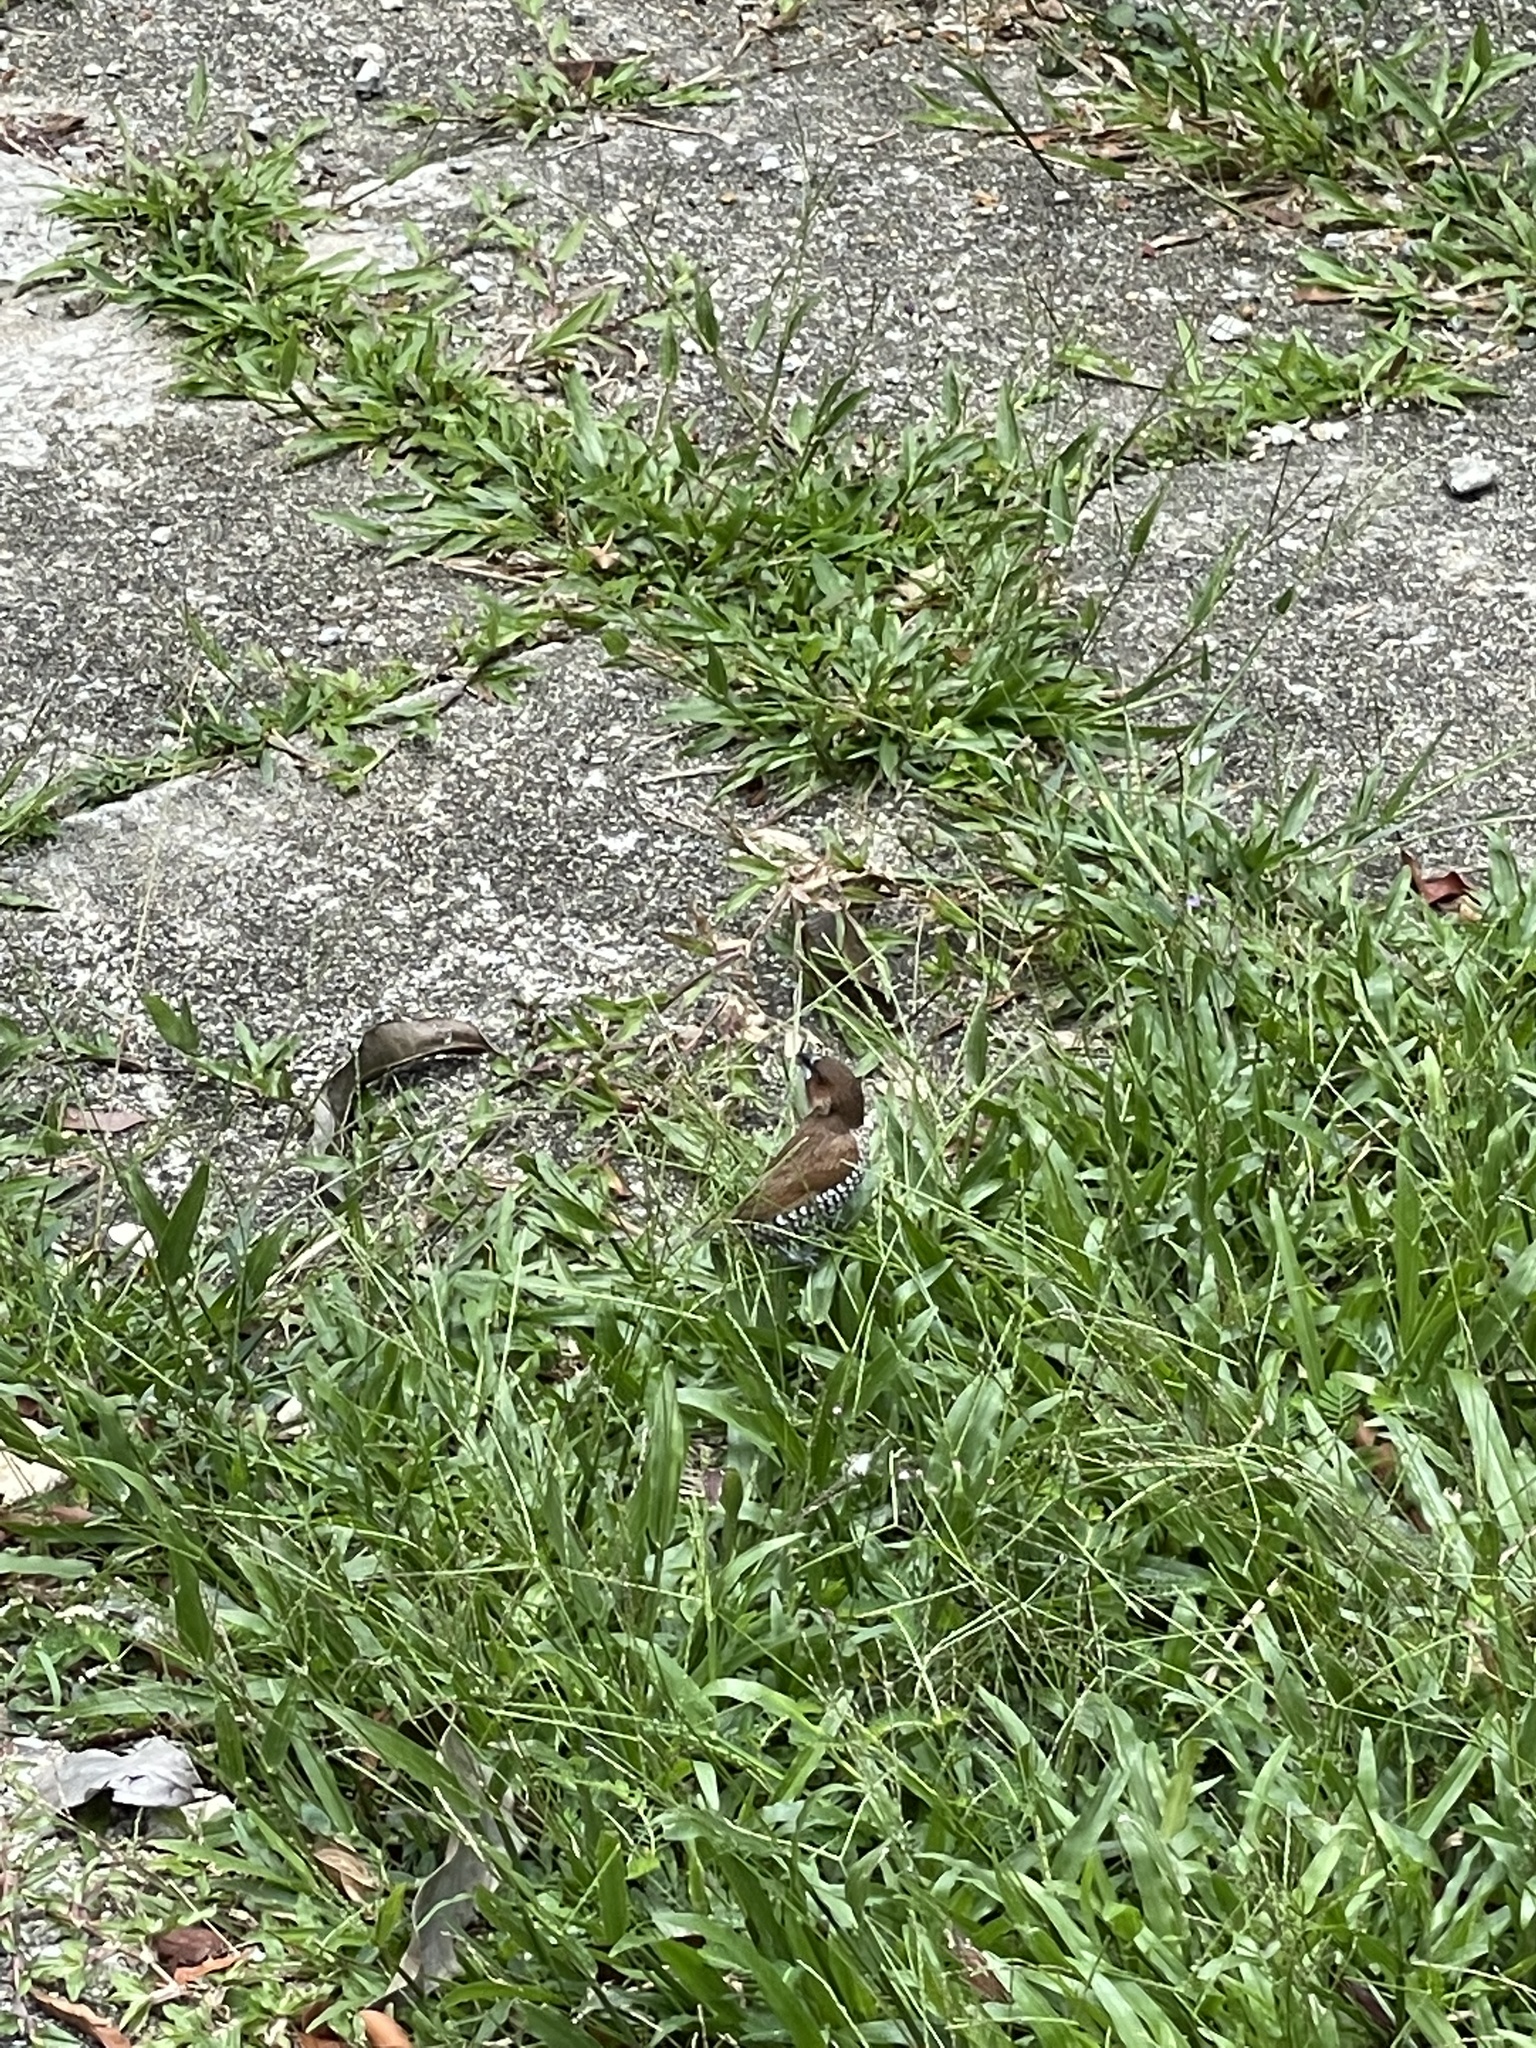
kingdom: Animalia
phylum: Chordata
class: Aves
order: Passeriformes
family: Estrildidae
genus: Lonchura
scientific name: Lonchura punctulata
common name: Scaly-breasted munia
